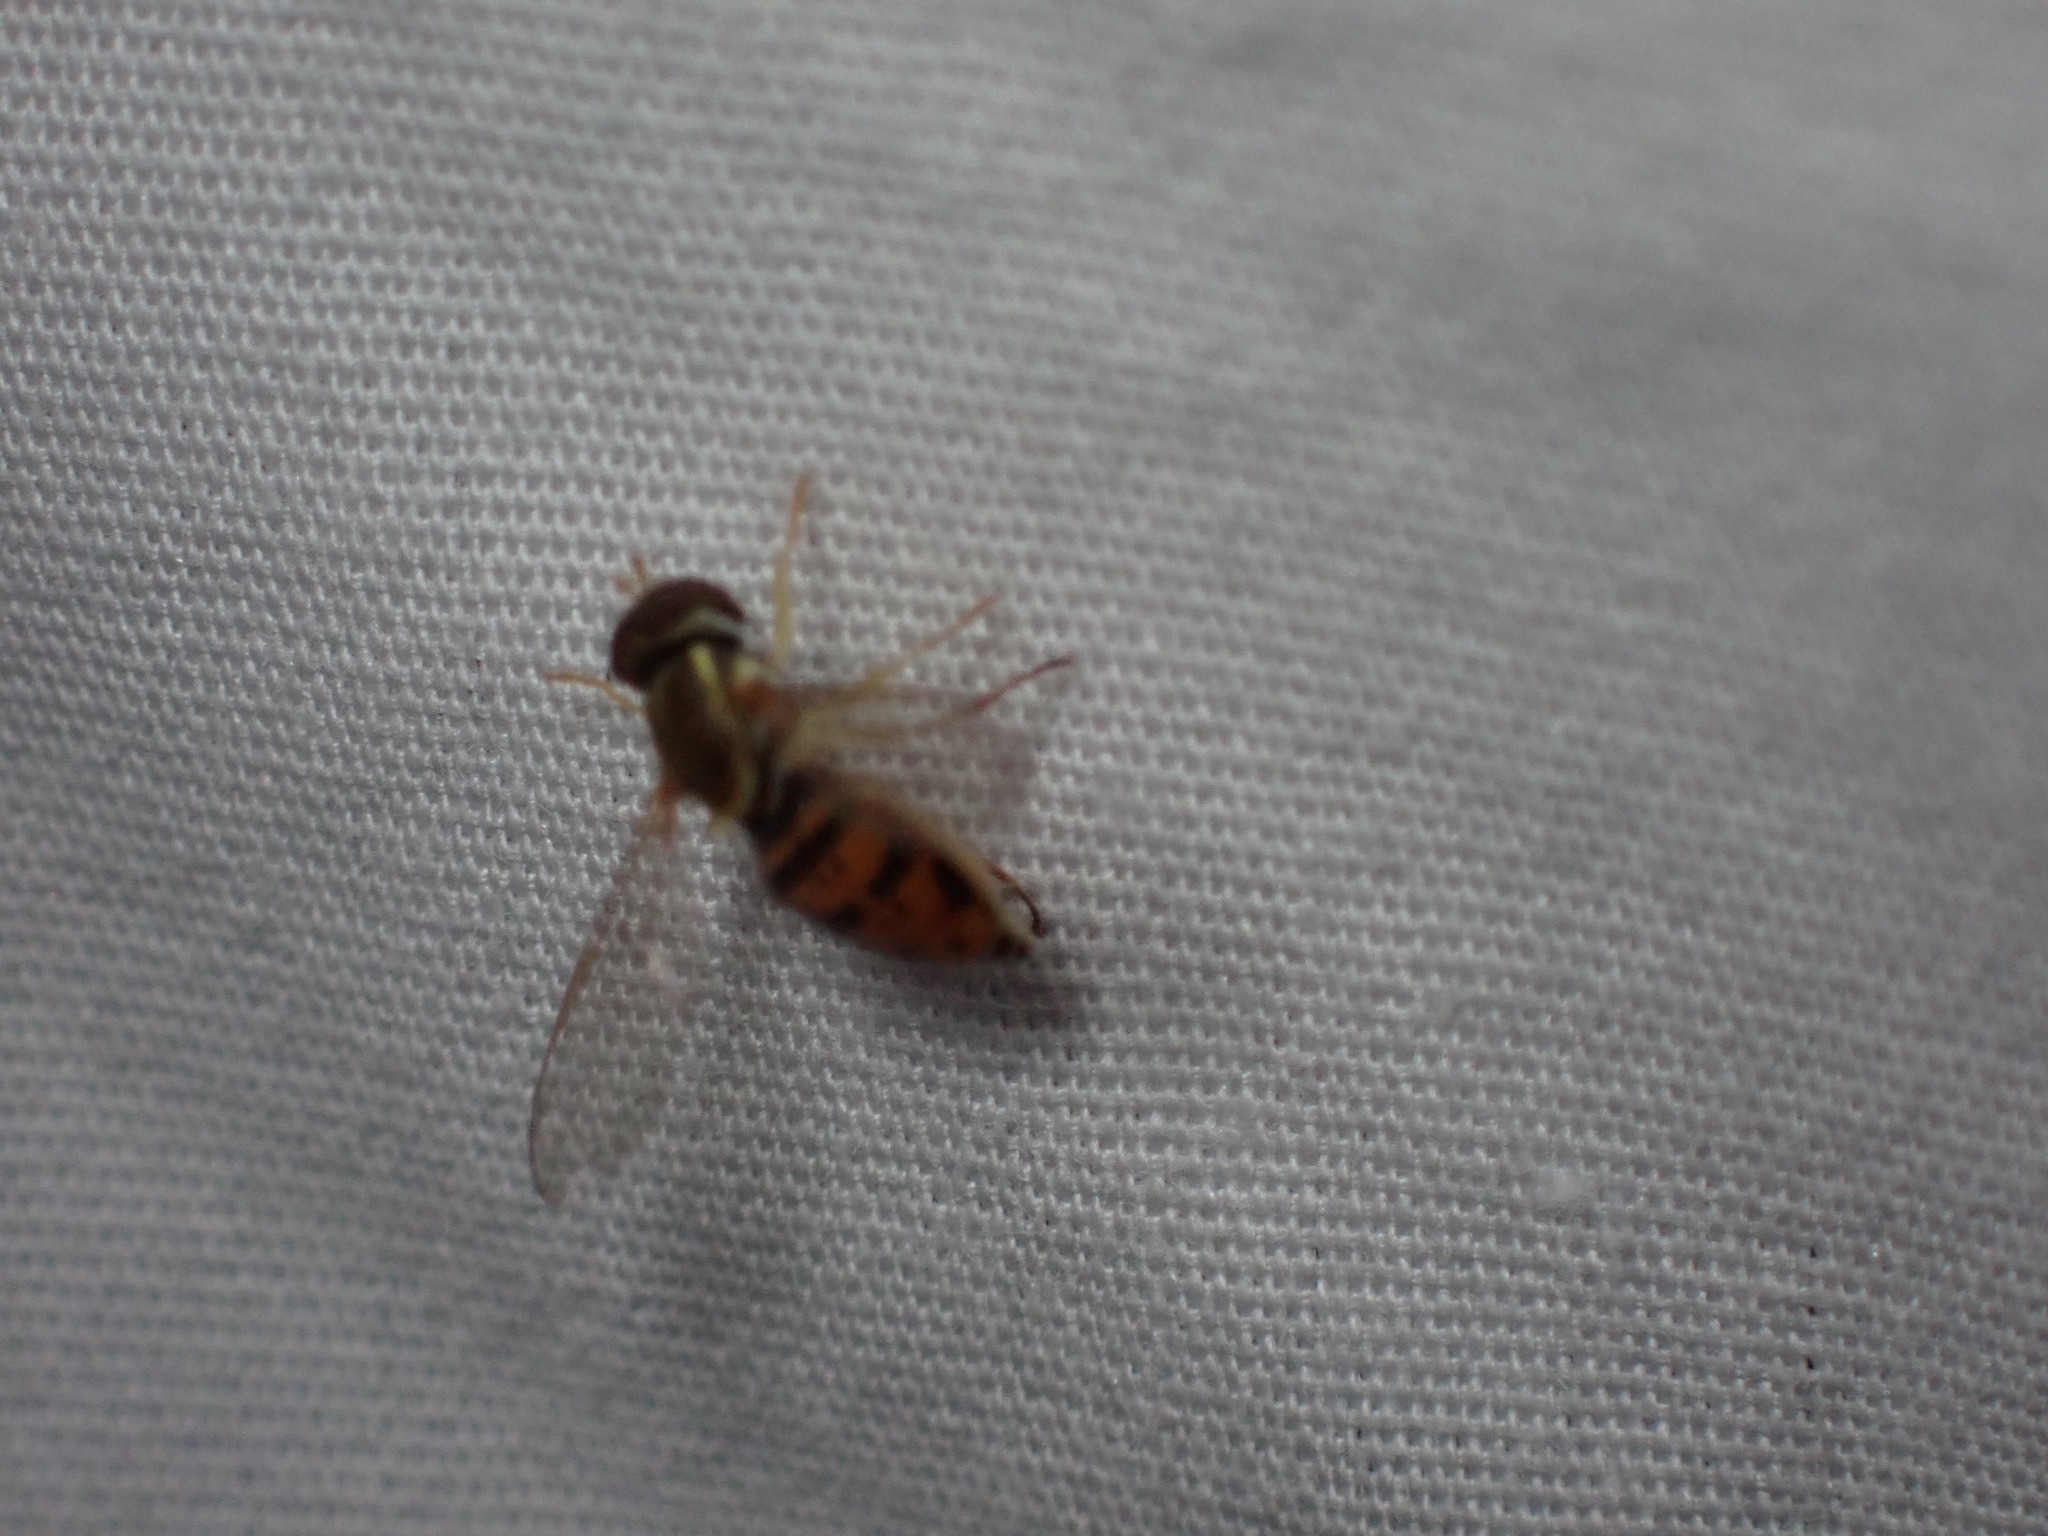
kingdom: Animalia
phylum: Arthropoda
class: Insecta
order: Diptera
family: Syrphidae
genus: Toxomerus
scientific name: Toxomerus marginatus
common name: Syrphid fly
